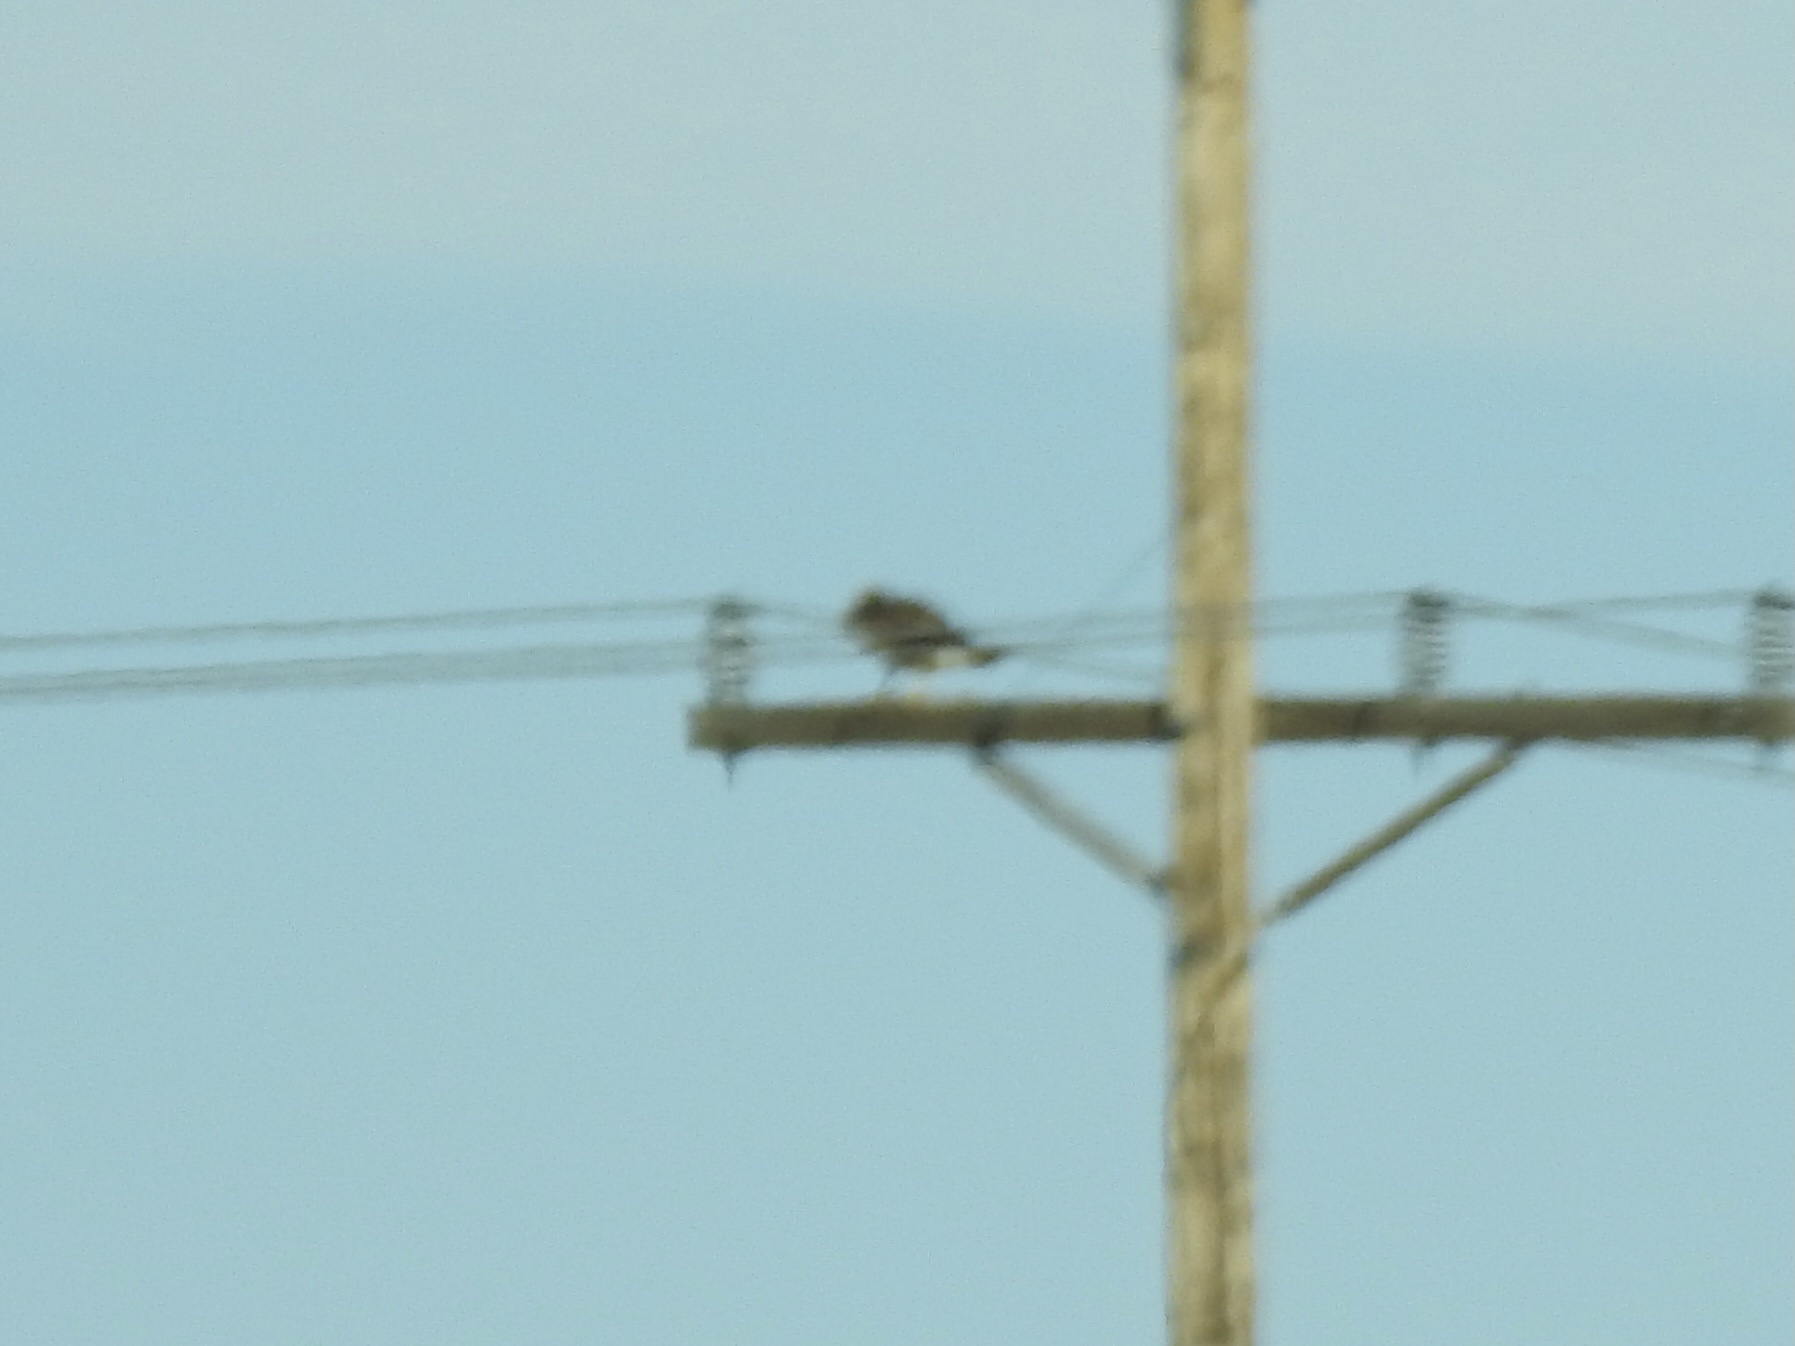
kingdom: Animalia
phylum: Chordata
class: Aves
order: Accipitriformes
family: Accipitridae
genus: Parabuteo
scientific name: Parabuteo unicinctus
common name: Harris's hawk
